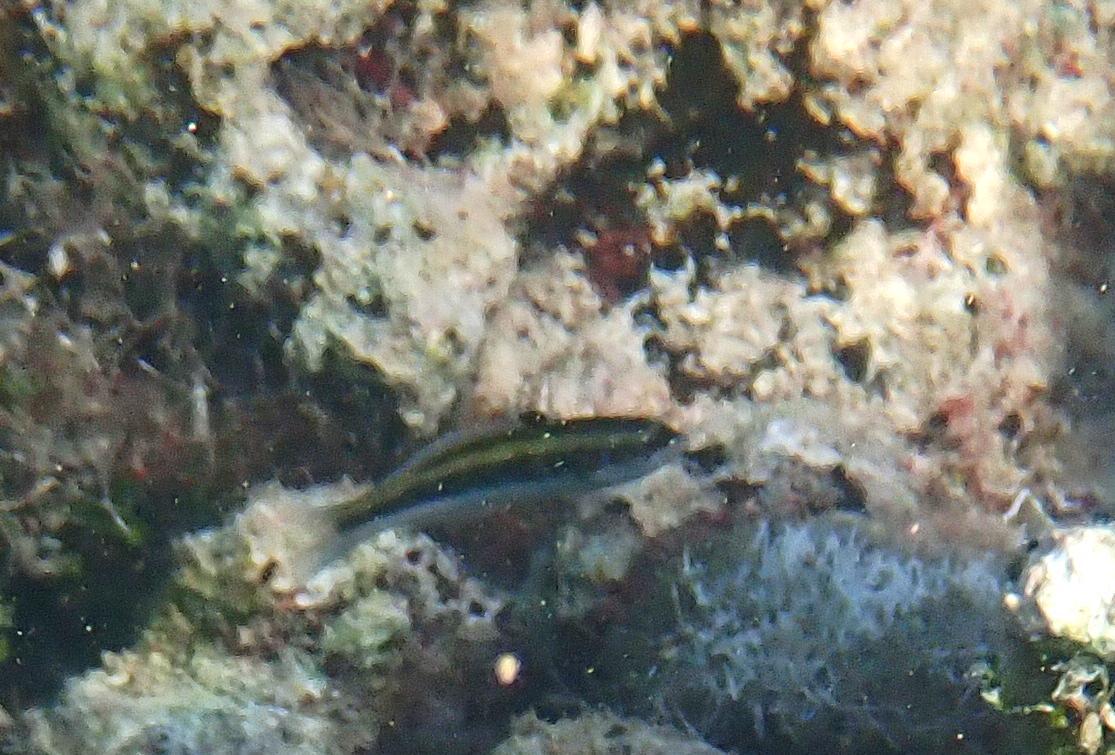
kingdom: Animalia
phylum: Chordata
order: Perciformes
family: Labridae
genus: Thalassoma
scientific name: Thalassoma bifasciatum
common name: Bluehead wrasse
